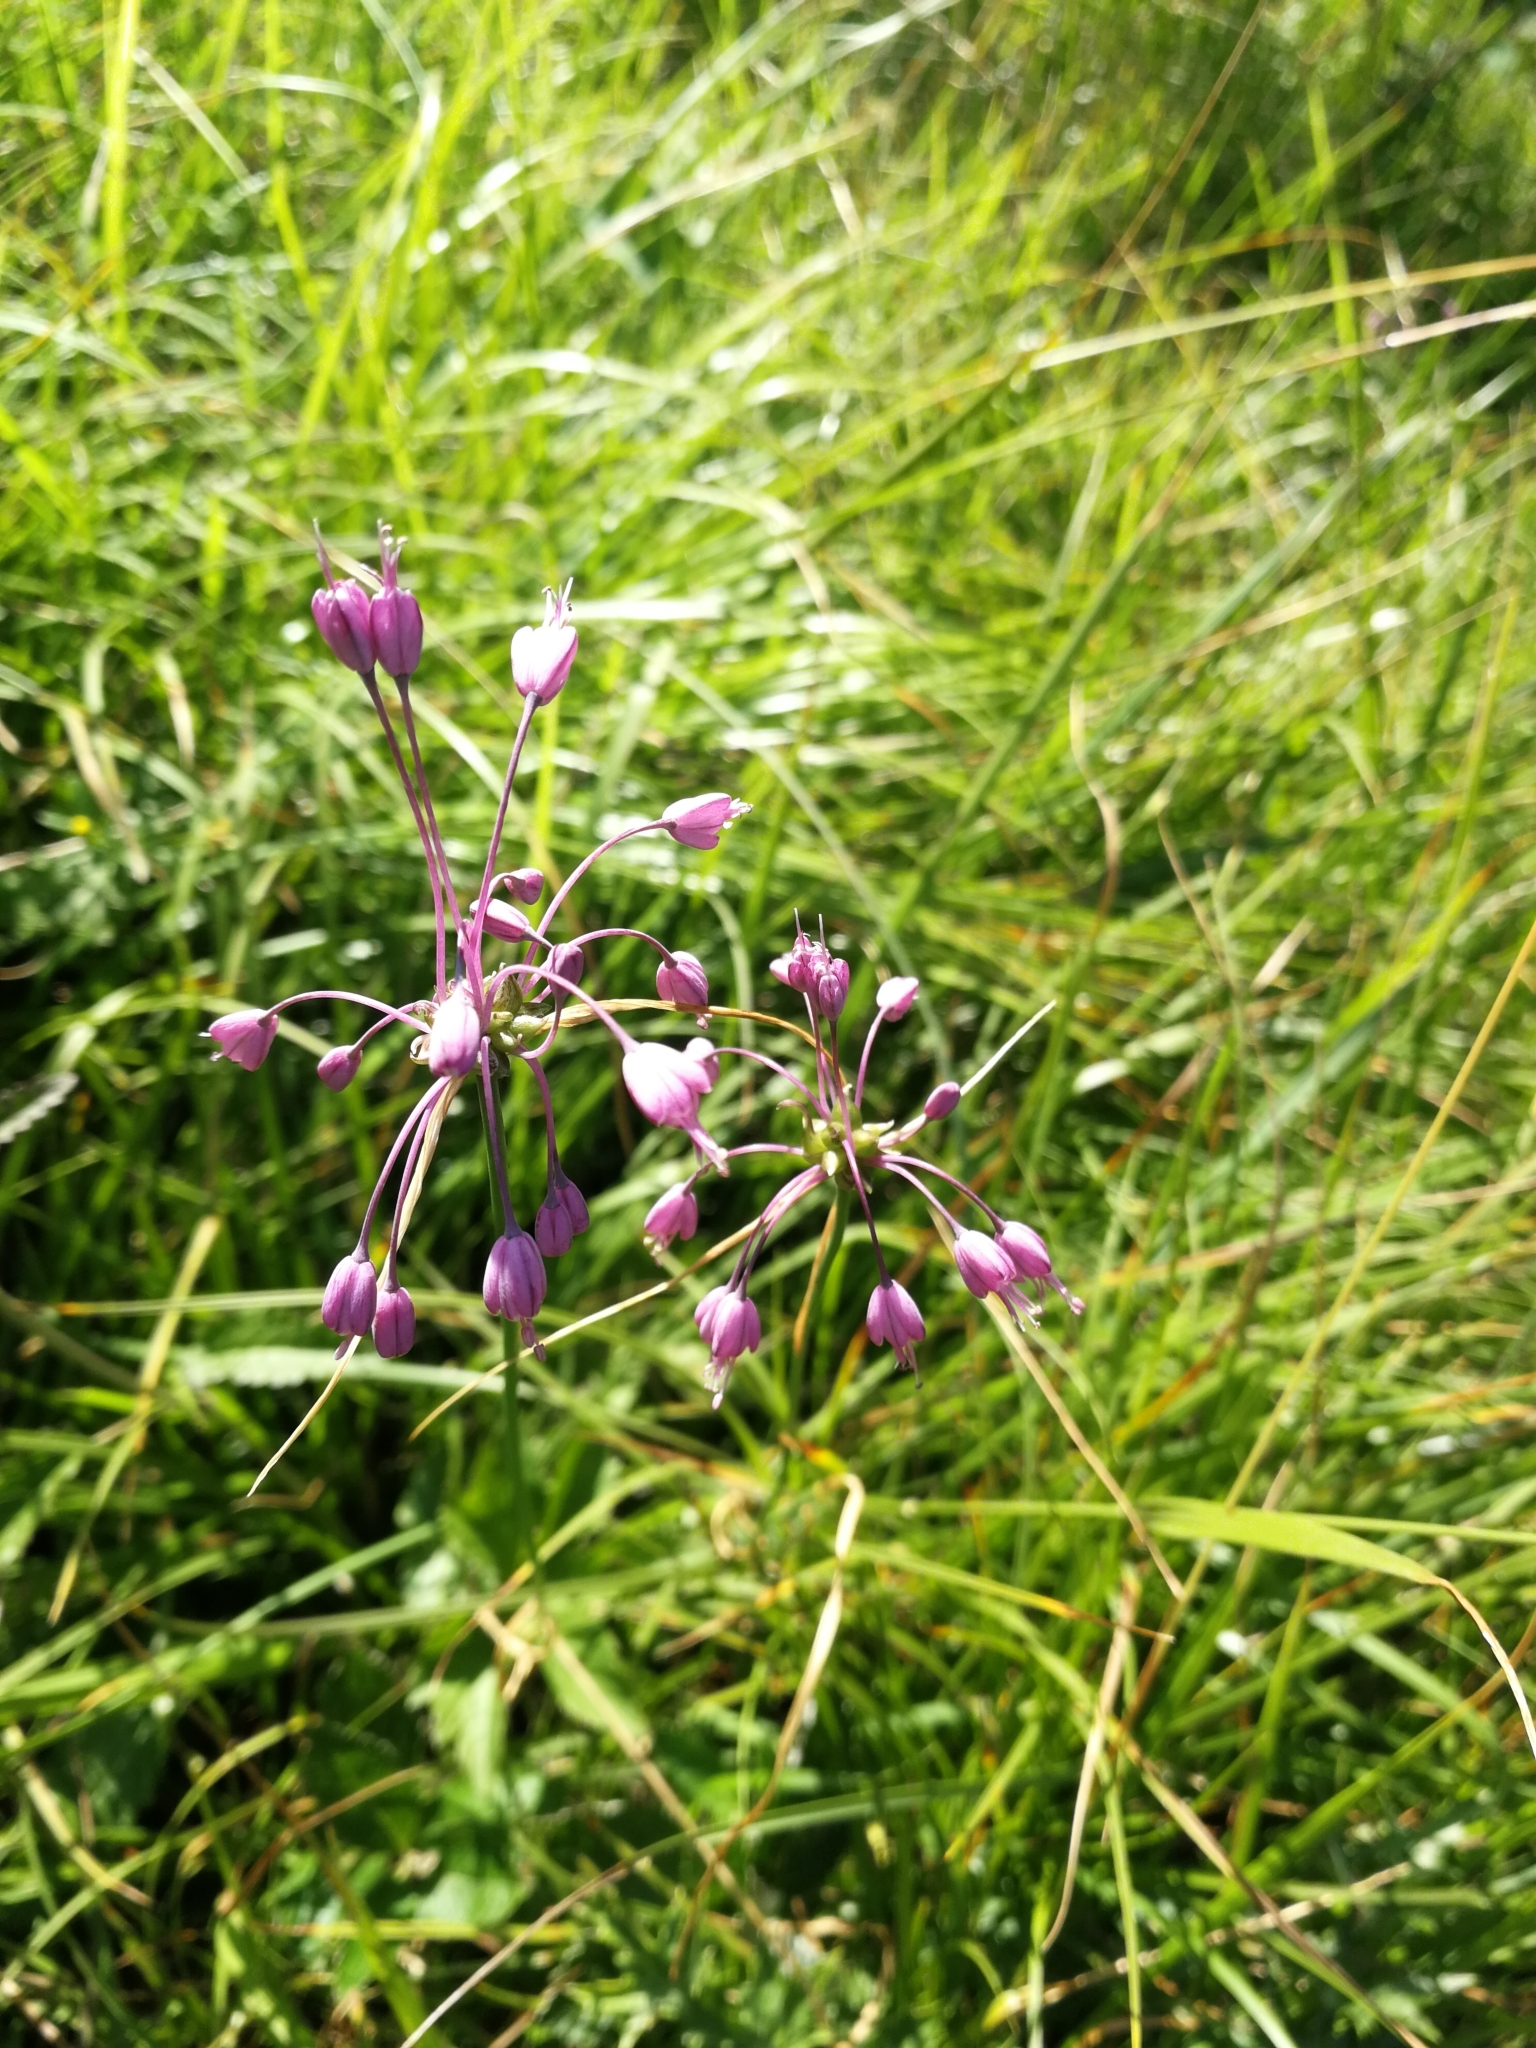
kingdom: Plantae
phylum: Tracheophyta
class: Liliopsida
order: Asparagales
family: Amaryllidaceae
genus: Allium
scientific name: Allium carinatum
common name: Keeled garlic
